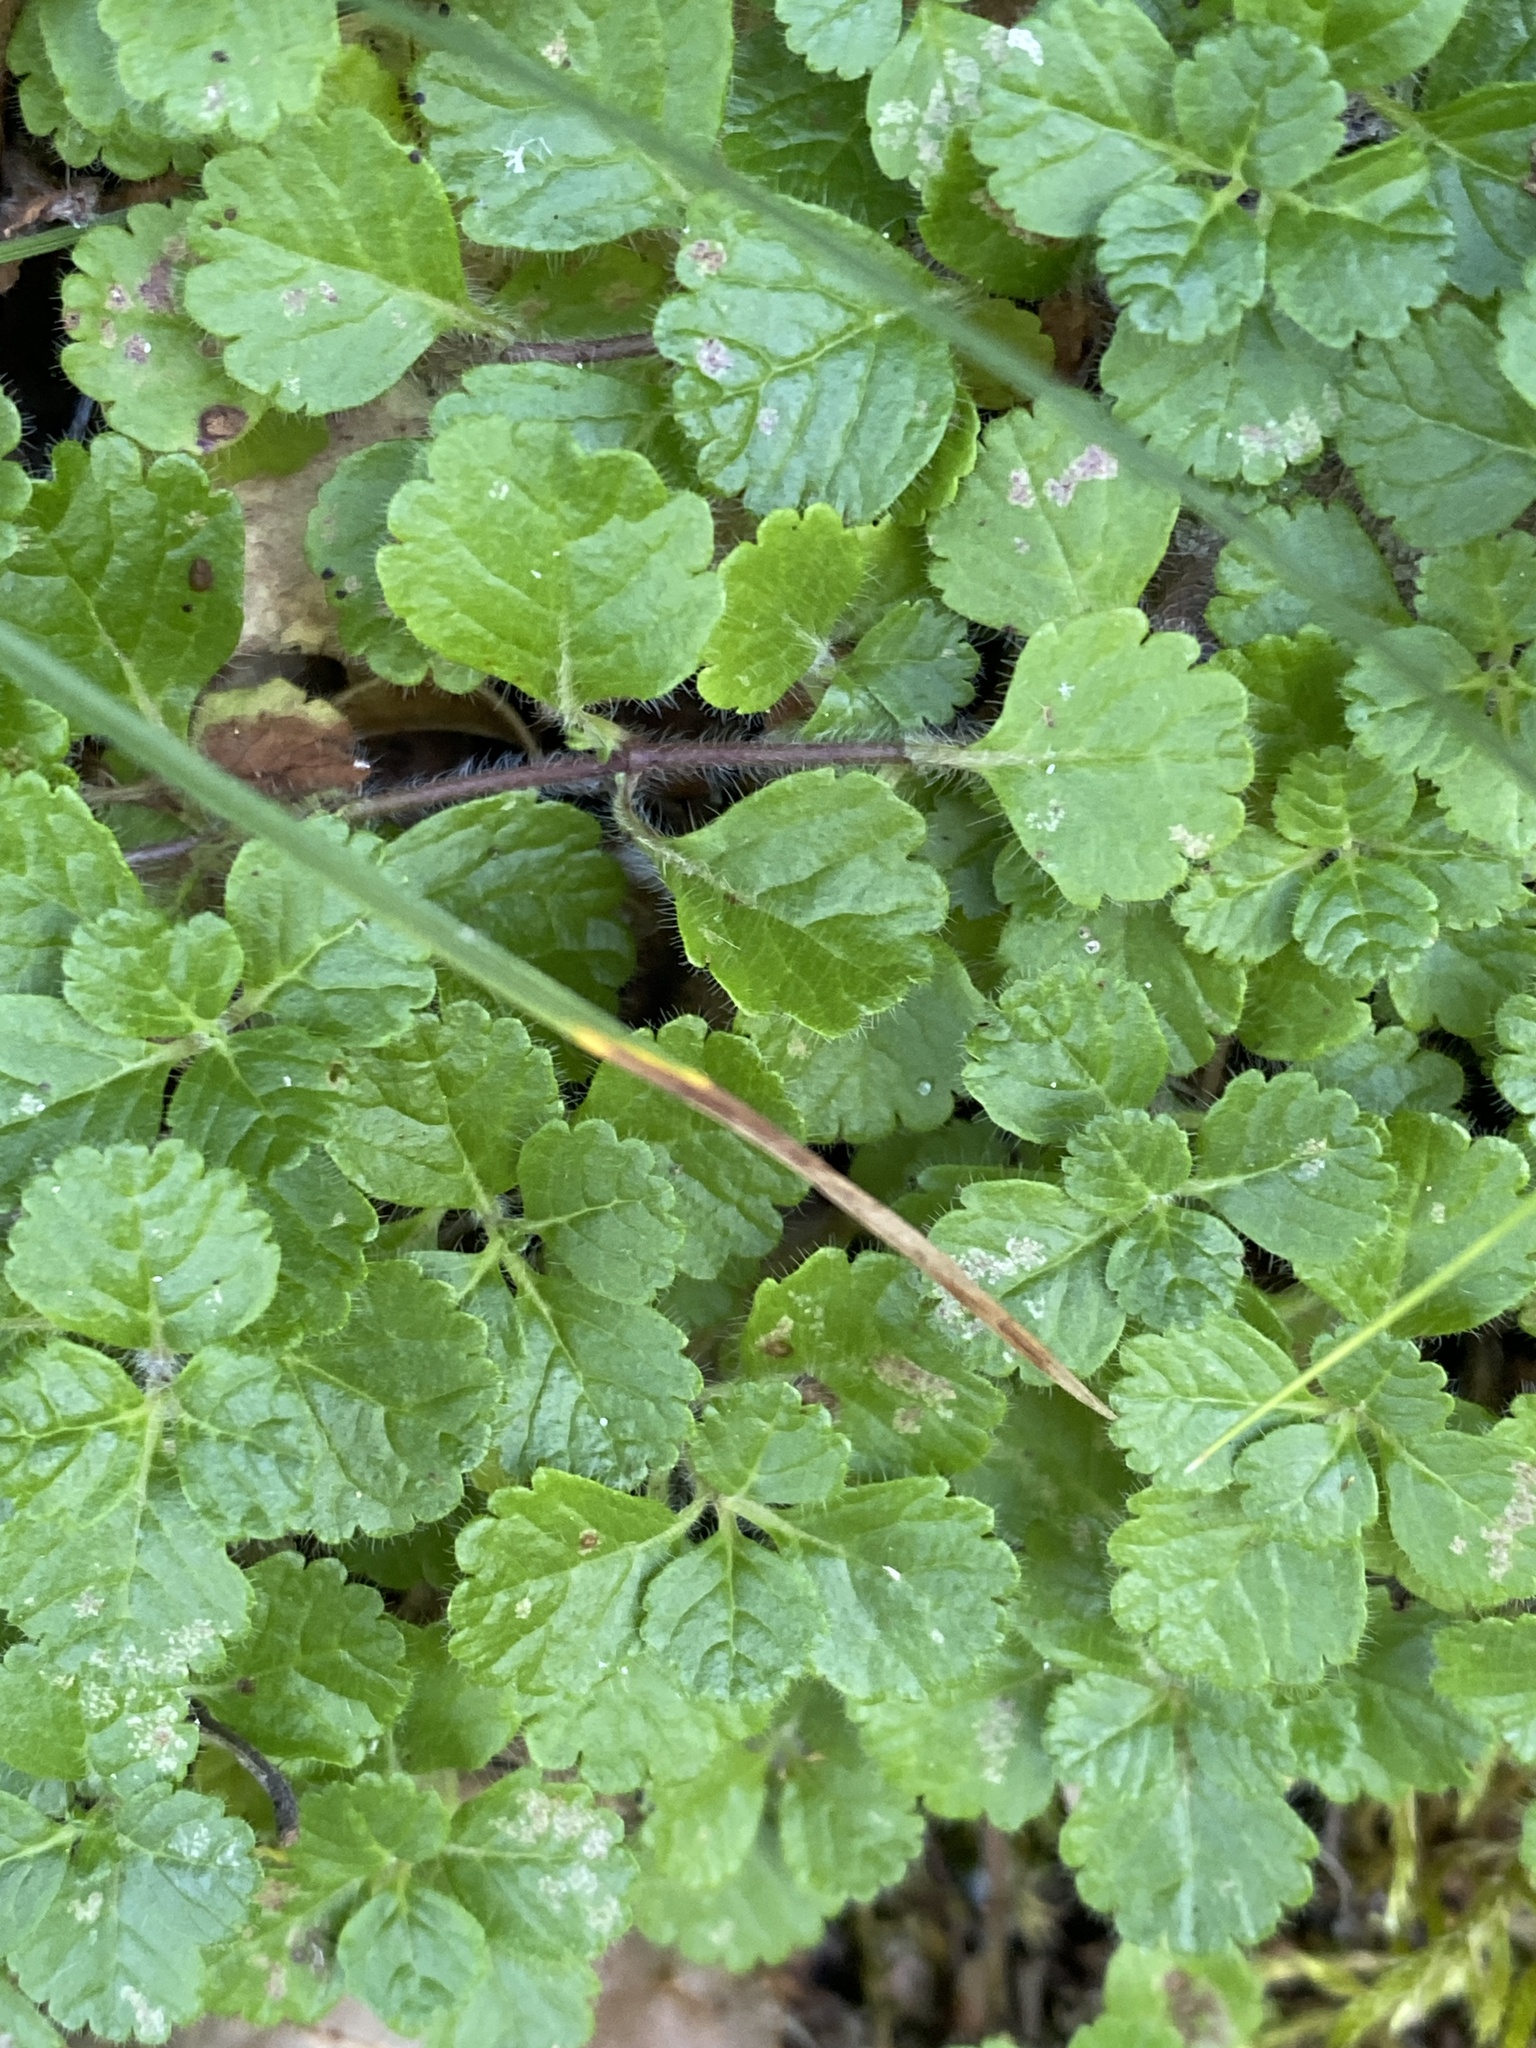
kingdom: Plantae
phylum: Tracheophyta
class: Magnoliopsida
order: Lamiales
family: Lamiaceae
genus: Teucrium
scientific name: Teucrium pyrenaicum
